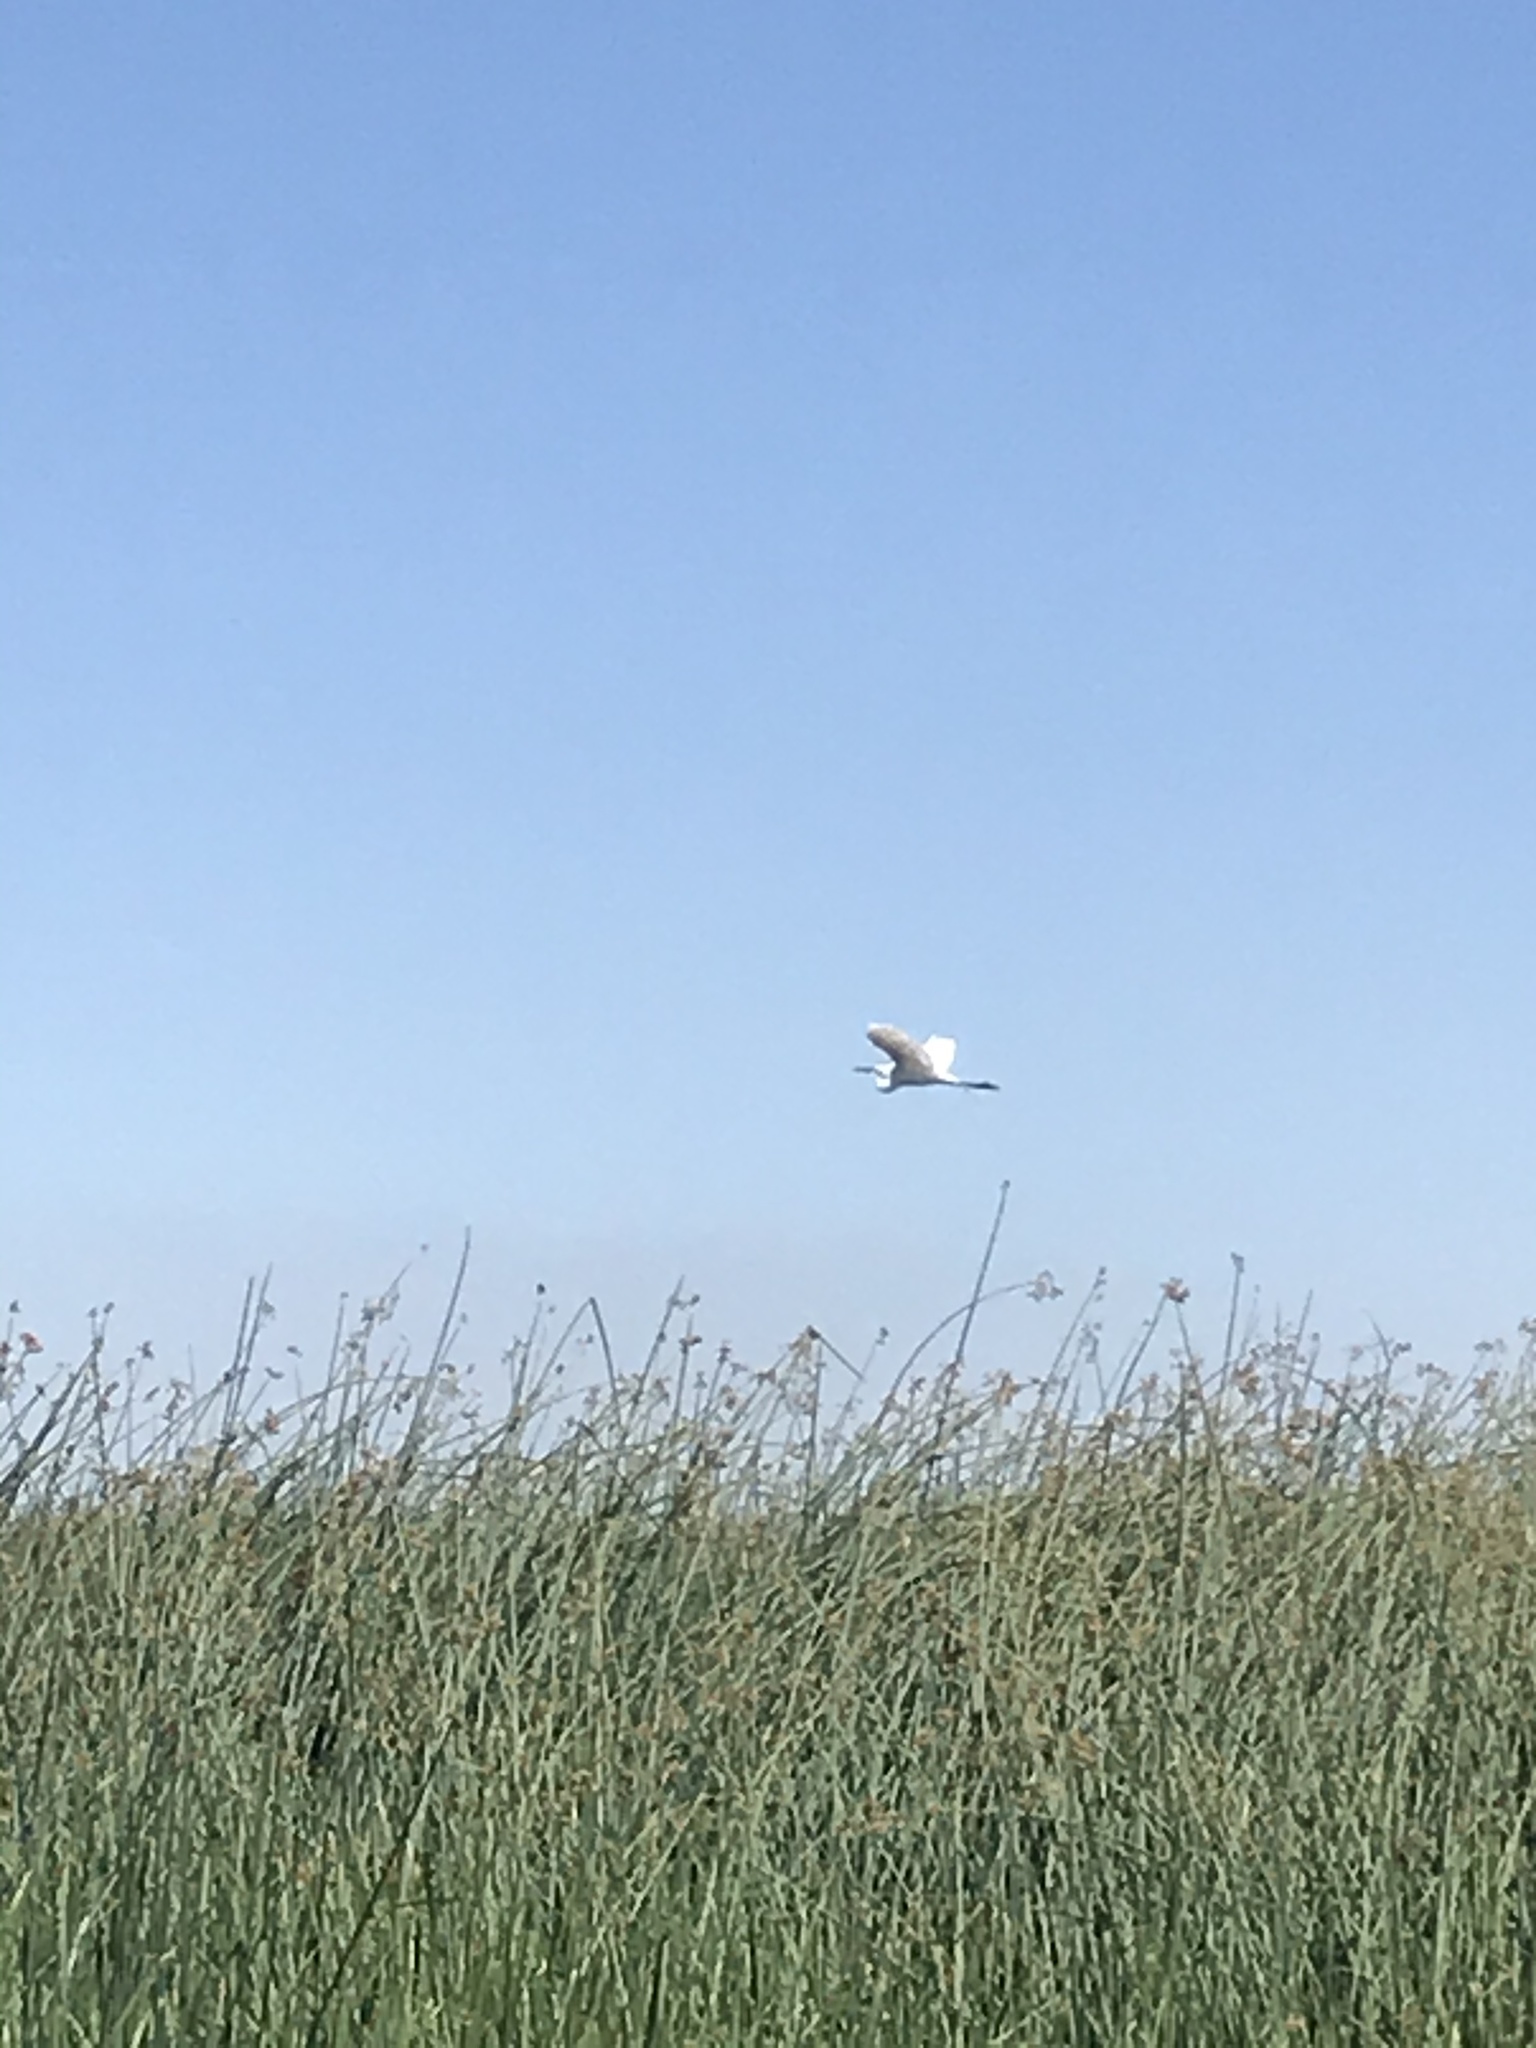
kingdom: Animalia
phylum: Chordata
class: Aves
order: Pelecaniformes
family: Ardeidae
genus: Ardea
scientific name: Ardea alba
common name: Great egret
